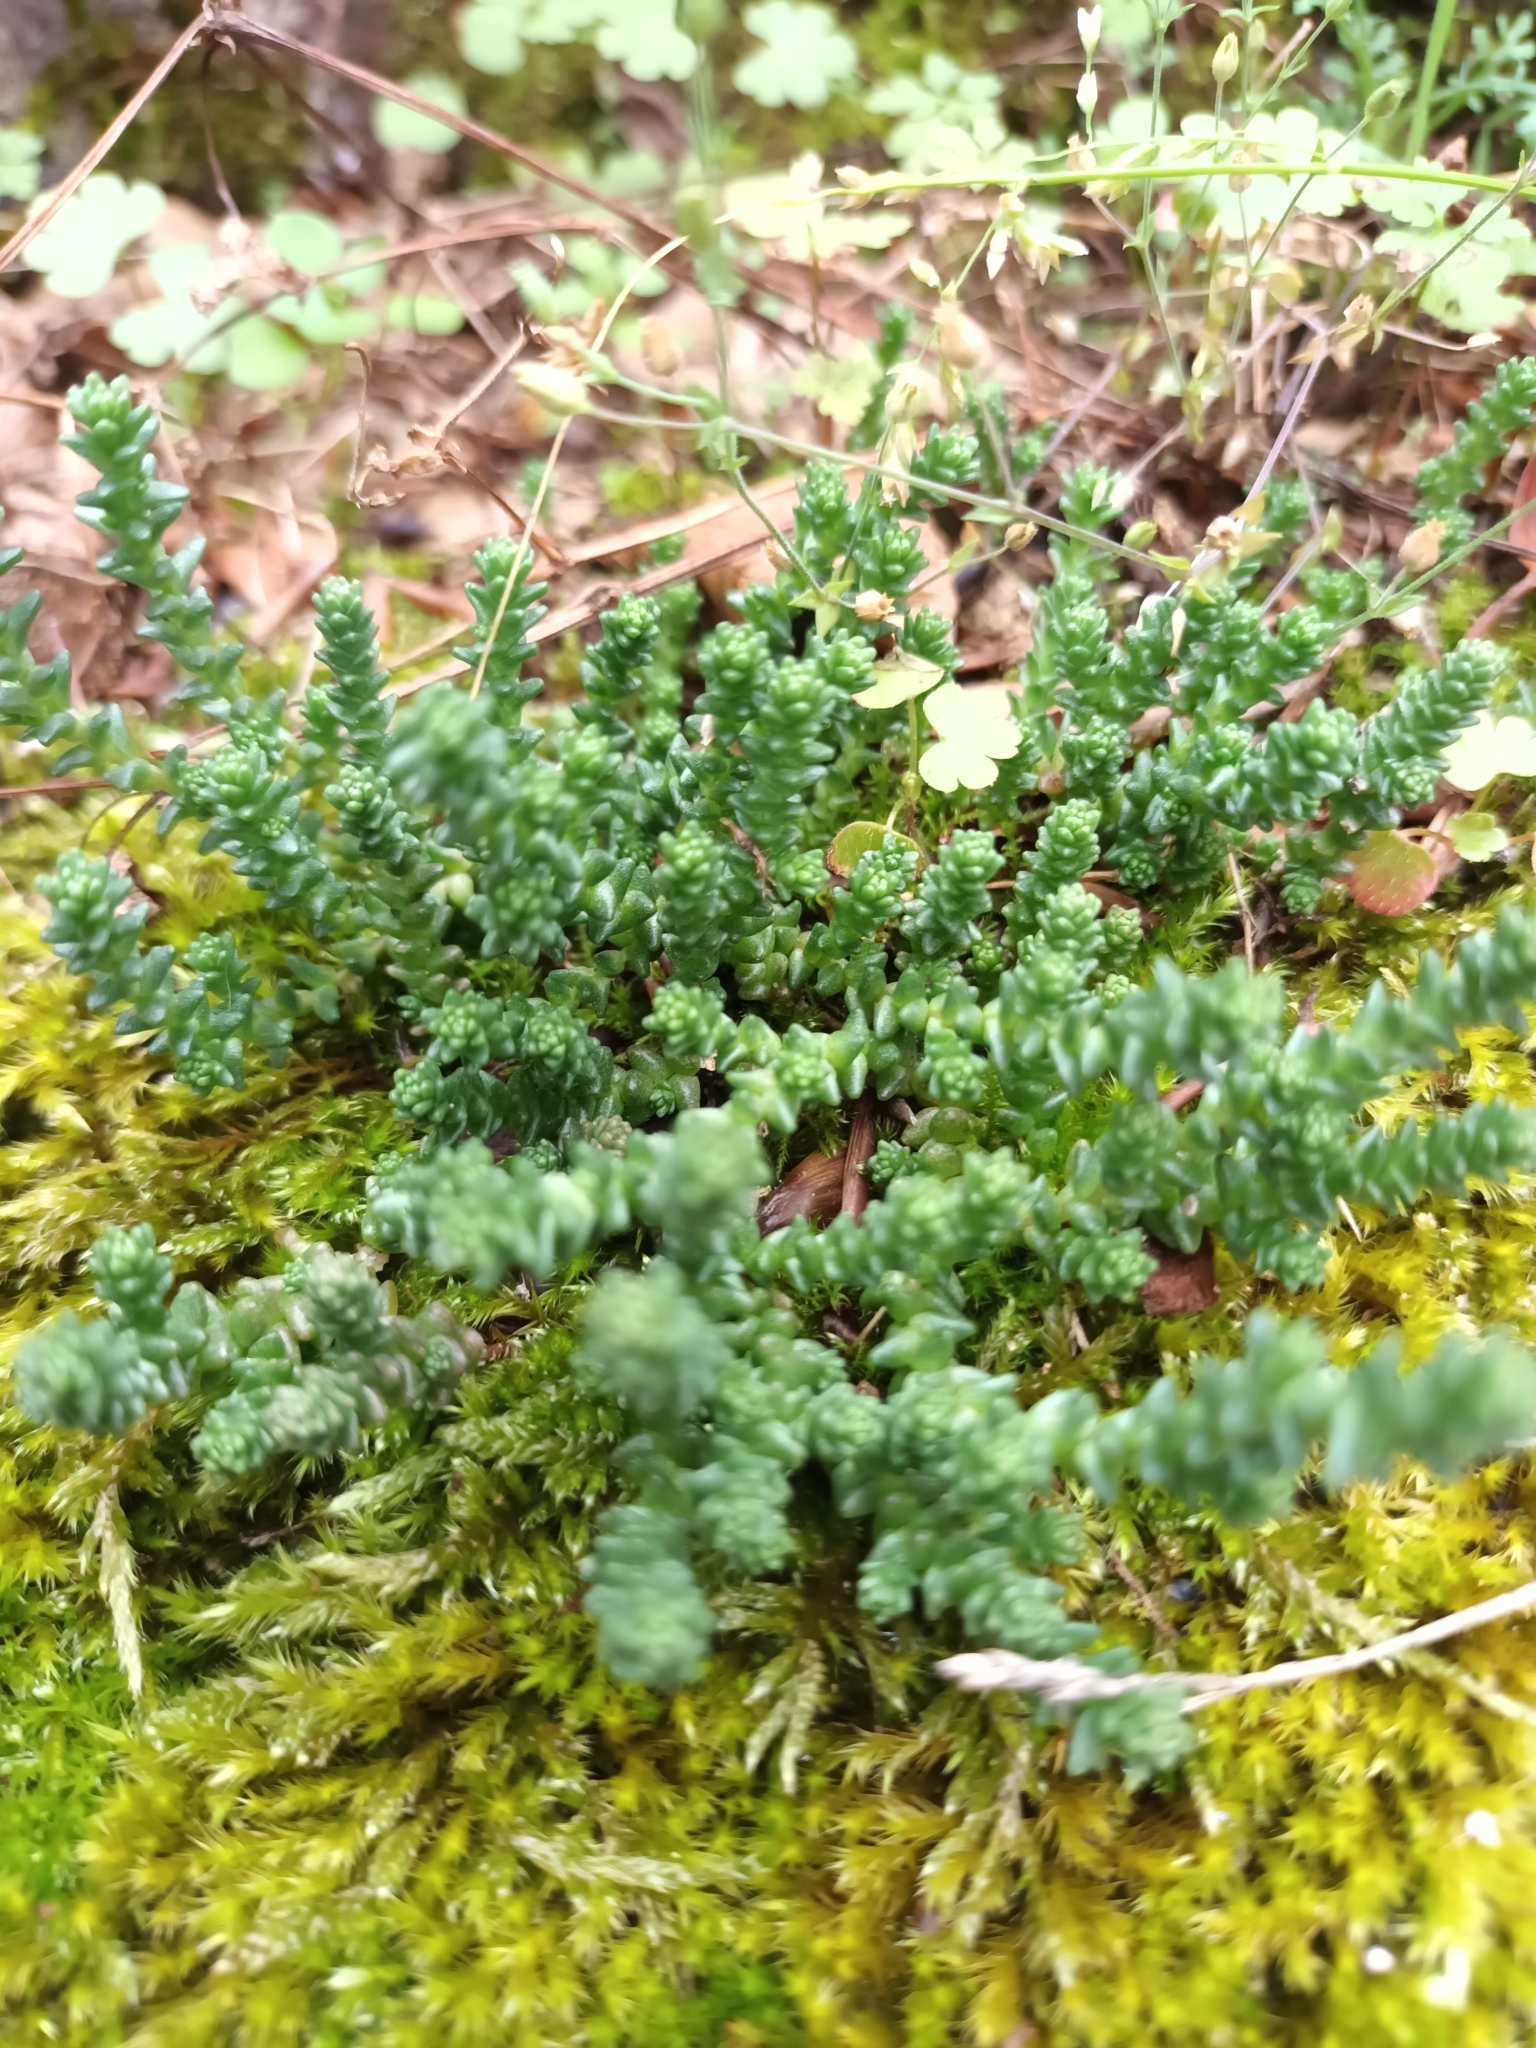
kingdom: Plantae
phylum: Tracheophyta
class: Magnoliopsida
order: Saxifragales
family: Crassulaceae
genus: Sedum
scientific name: Sedum acre
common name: Biting stonecrop
